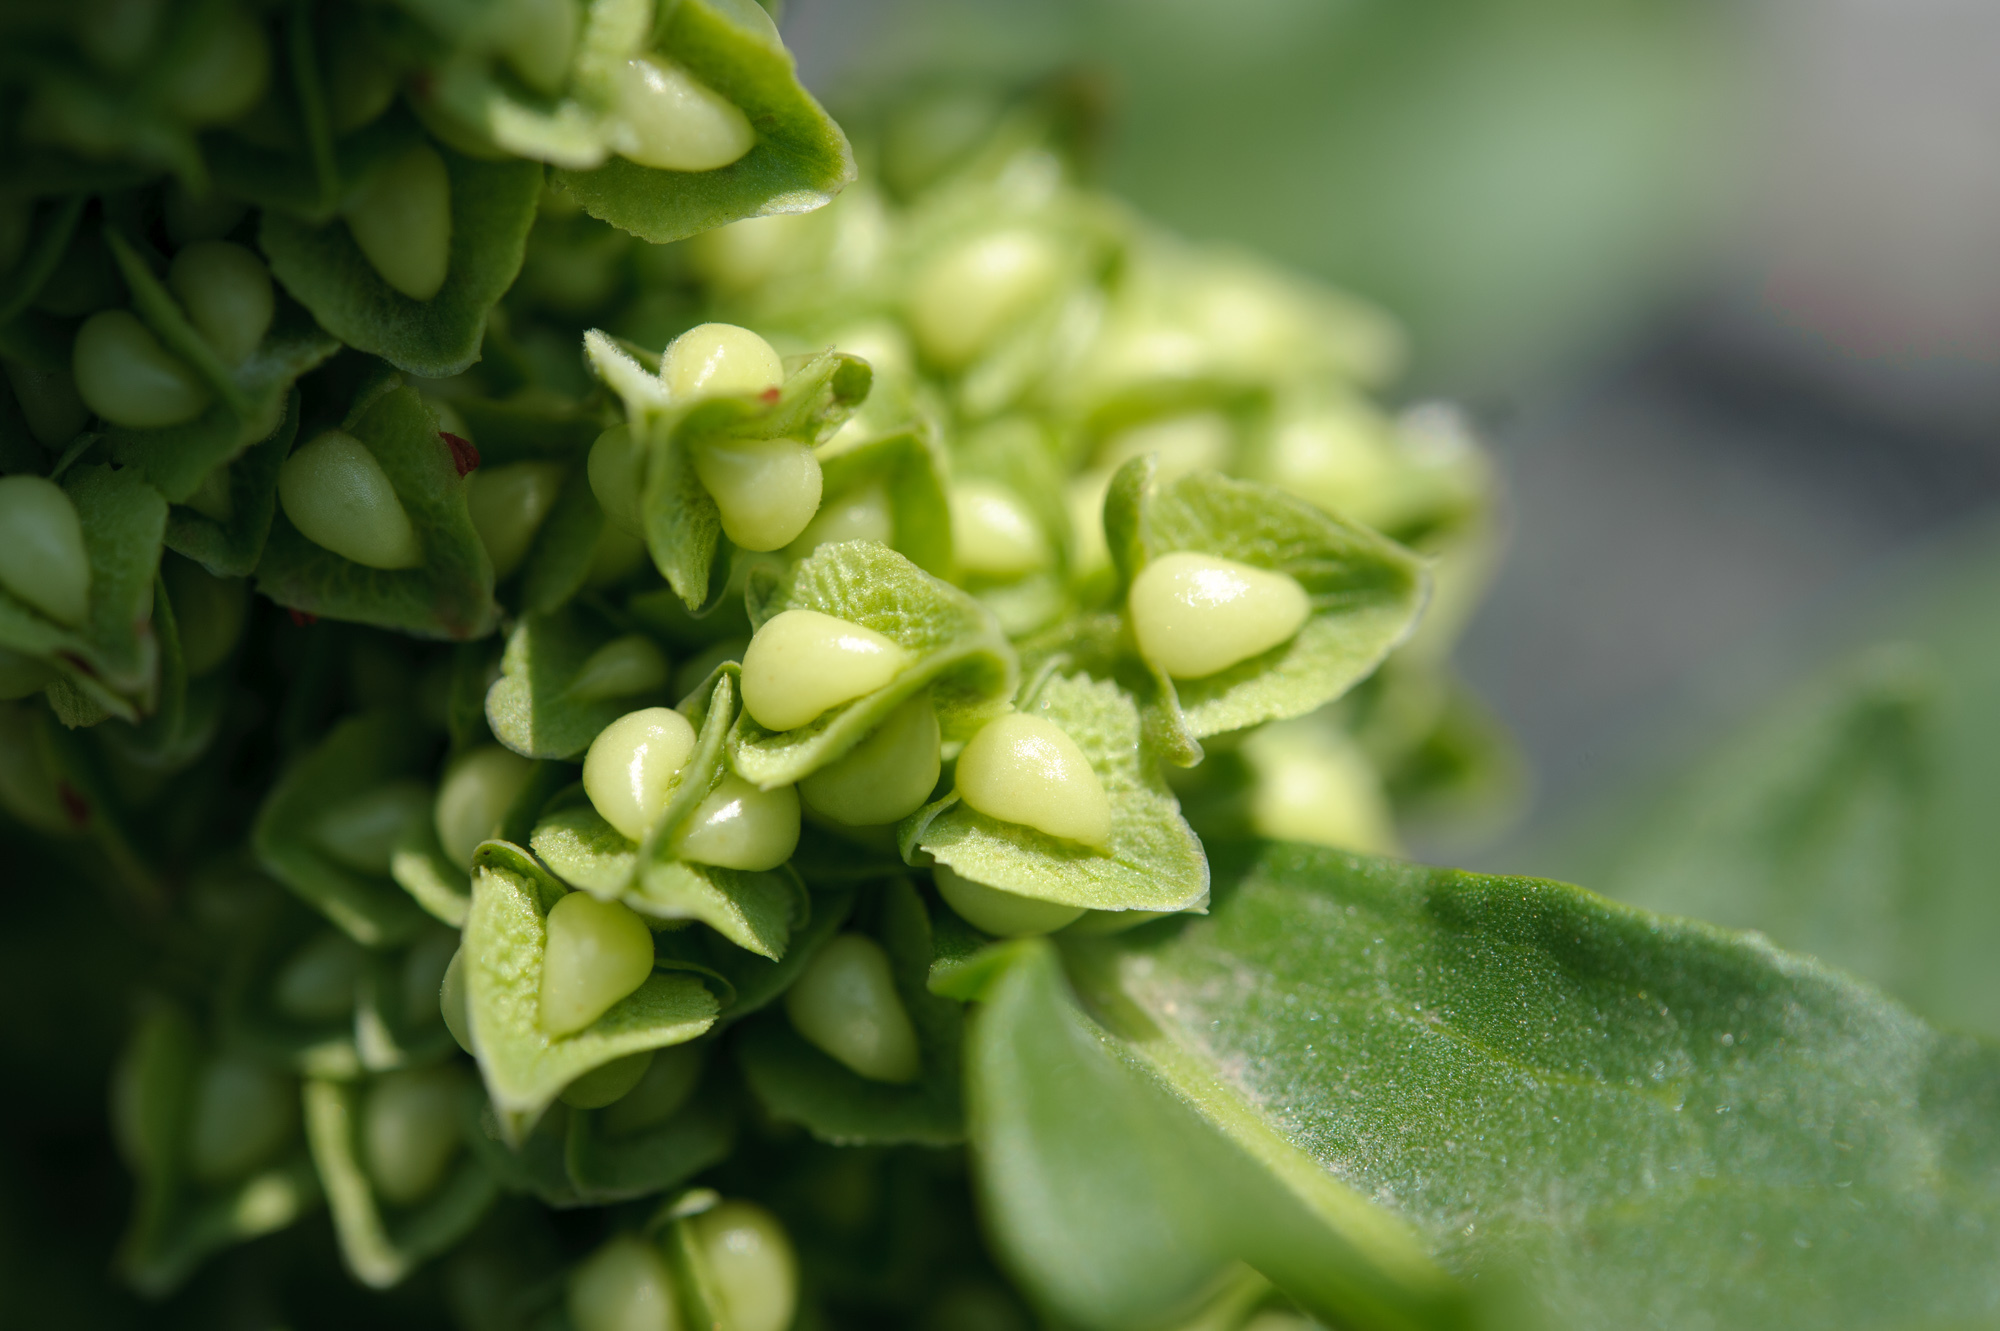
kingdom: Plantae
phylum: Tracheophyta
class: Magnoliopsida
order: Caryophyllales
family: Polygonaceae
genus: Rumex
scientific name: Rumex japonicus
